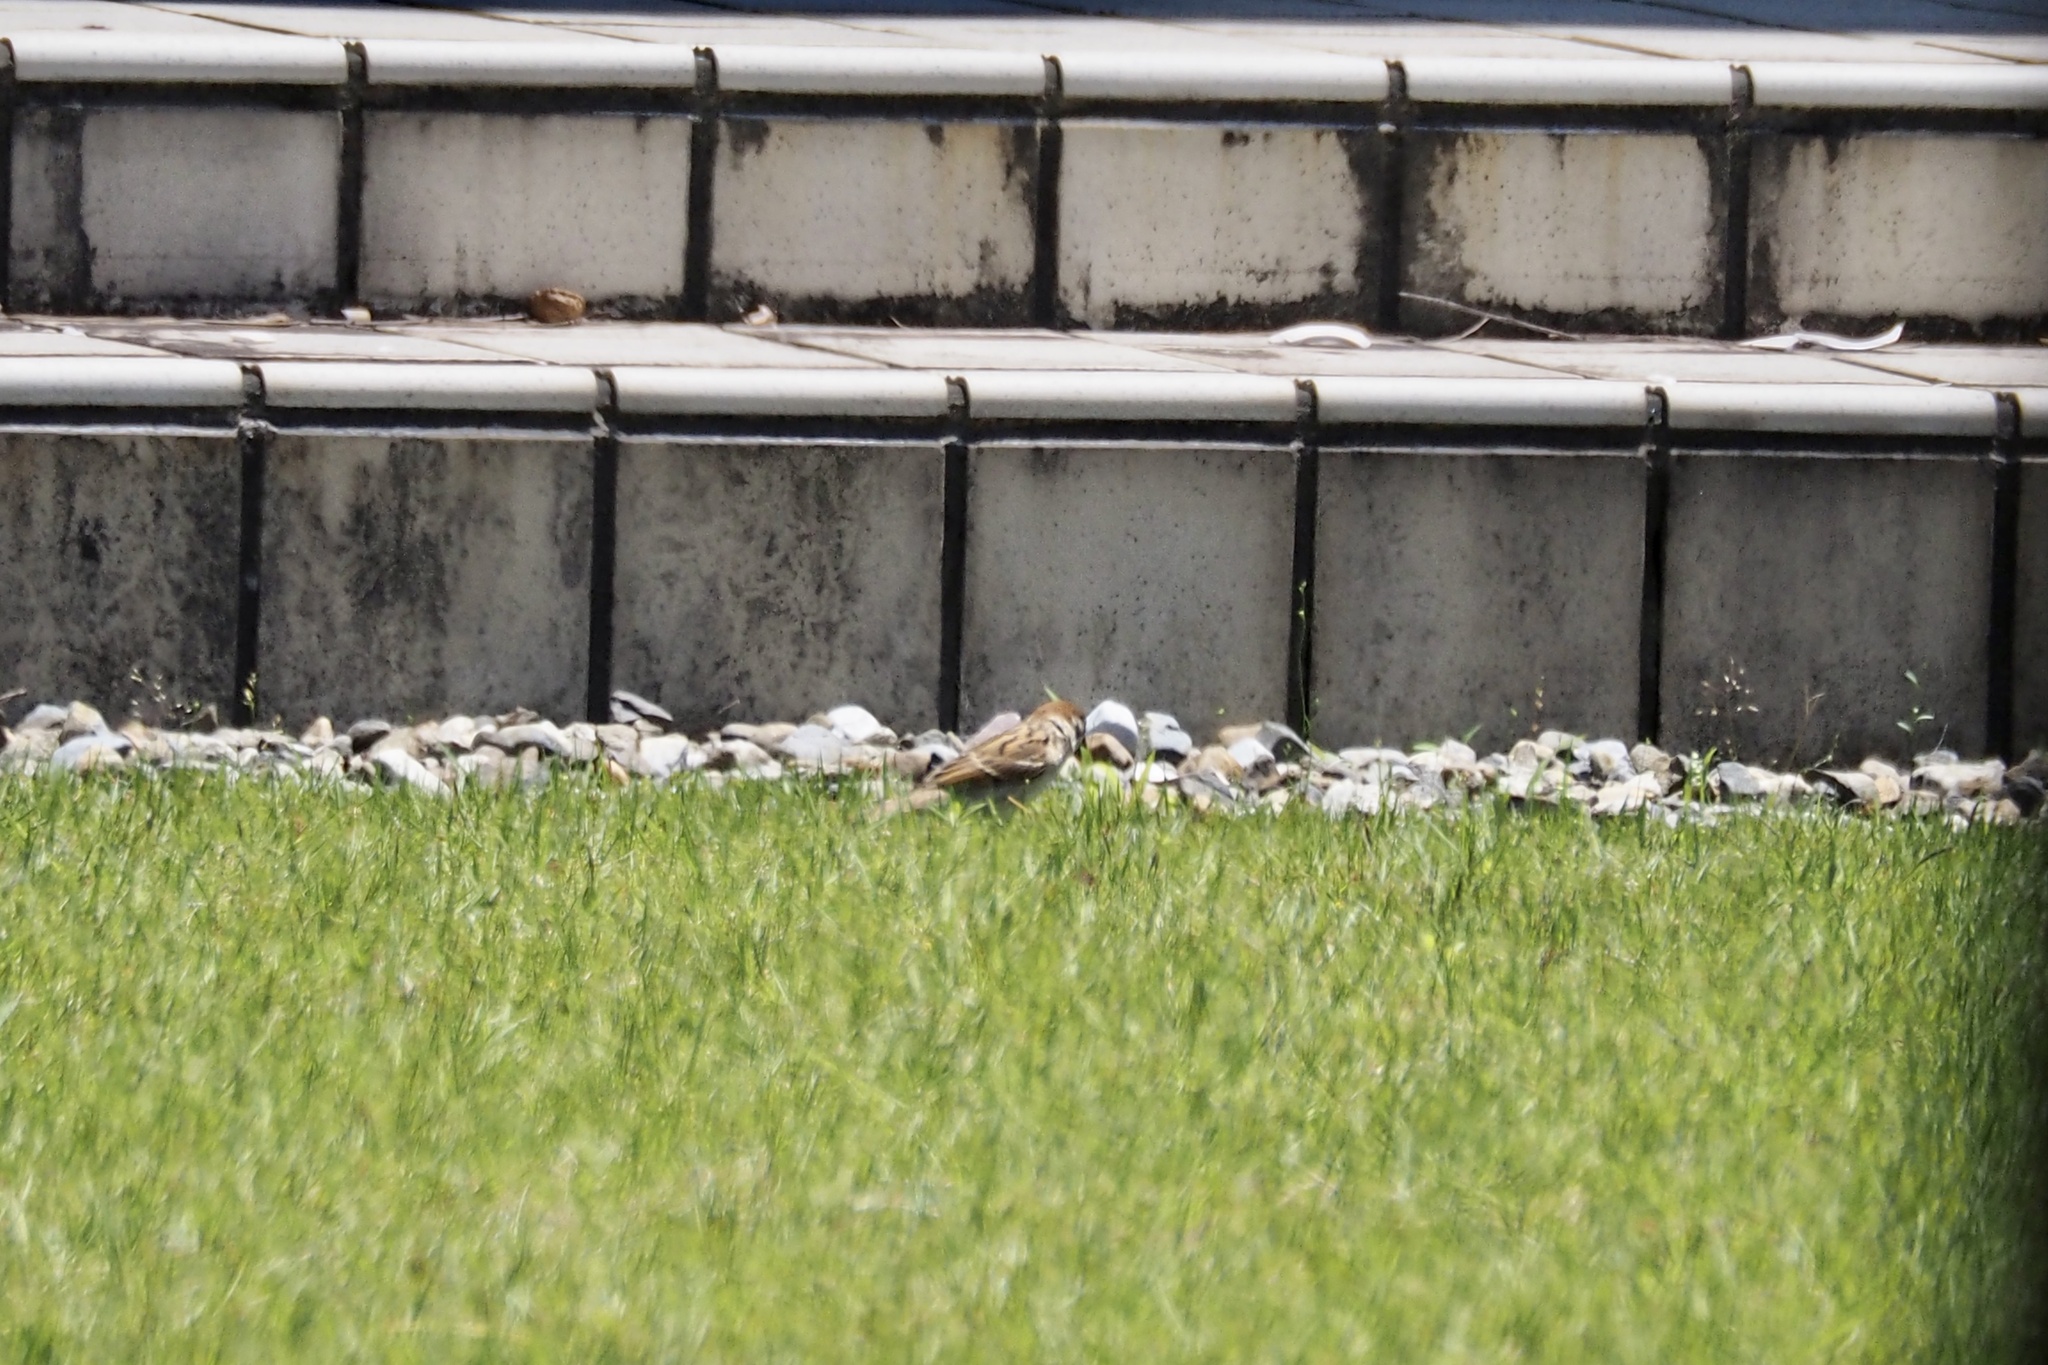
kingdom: Animalia
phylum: Chordata
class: Aves
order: Passeriformes
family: Passeridae
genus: Passer
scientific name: Passer montanus
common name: Eurasian tree sparrow
